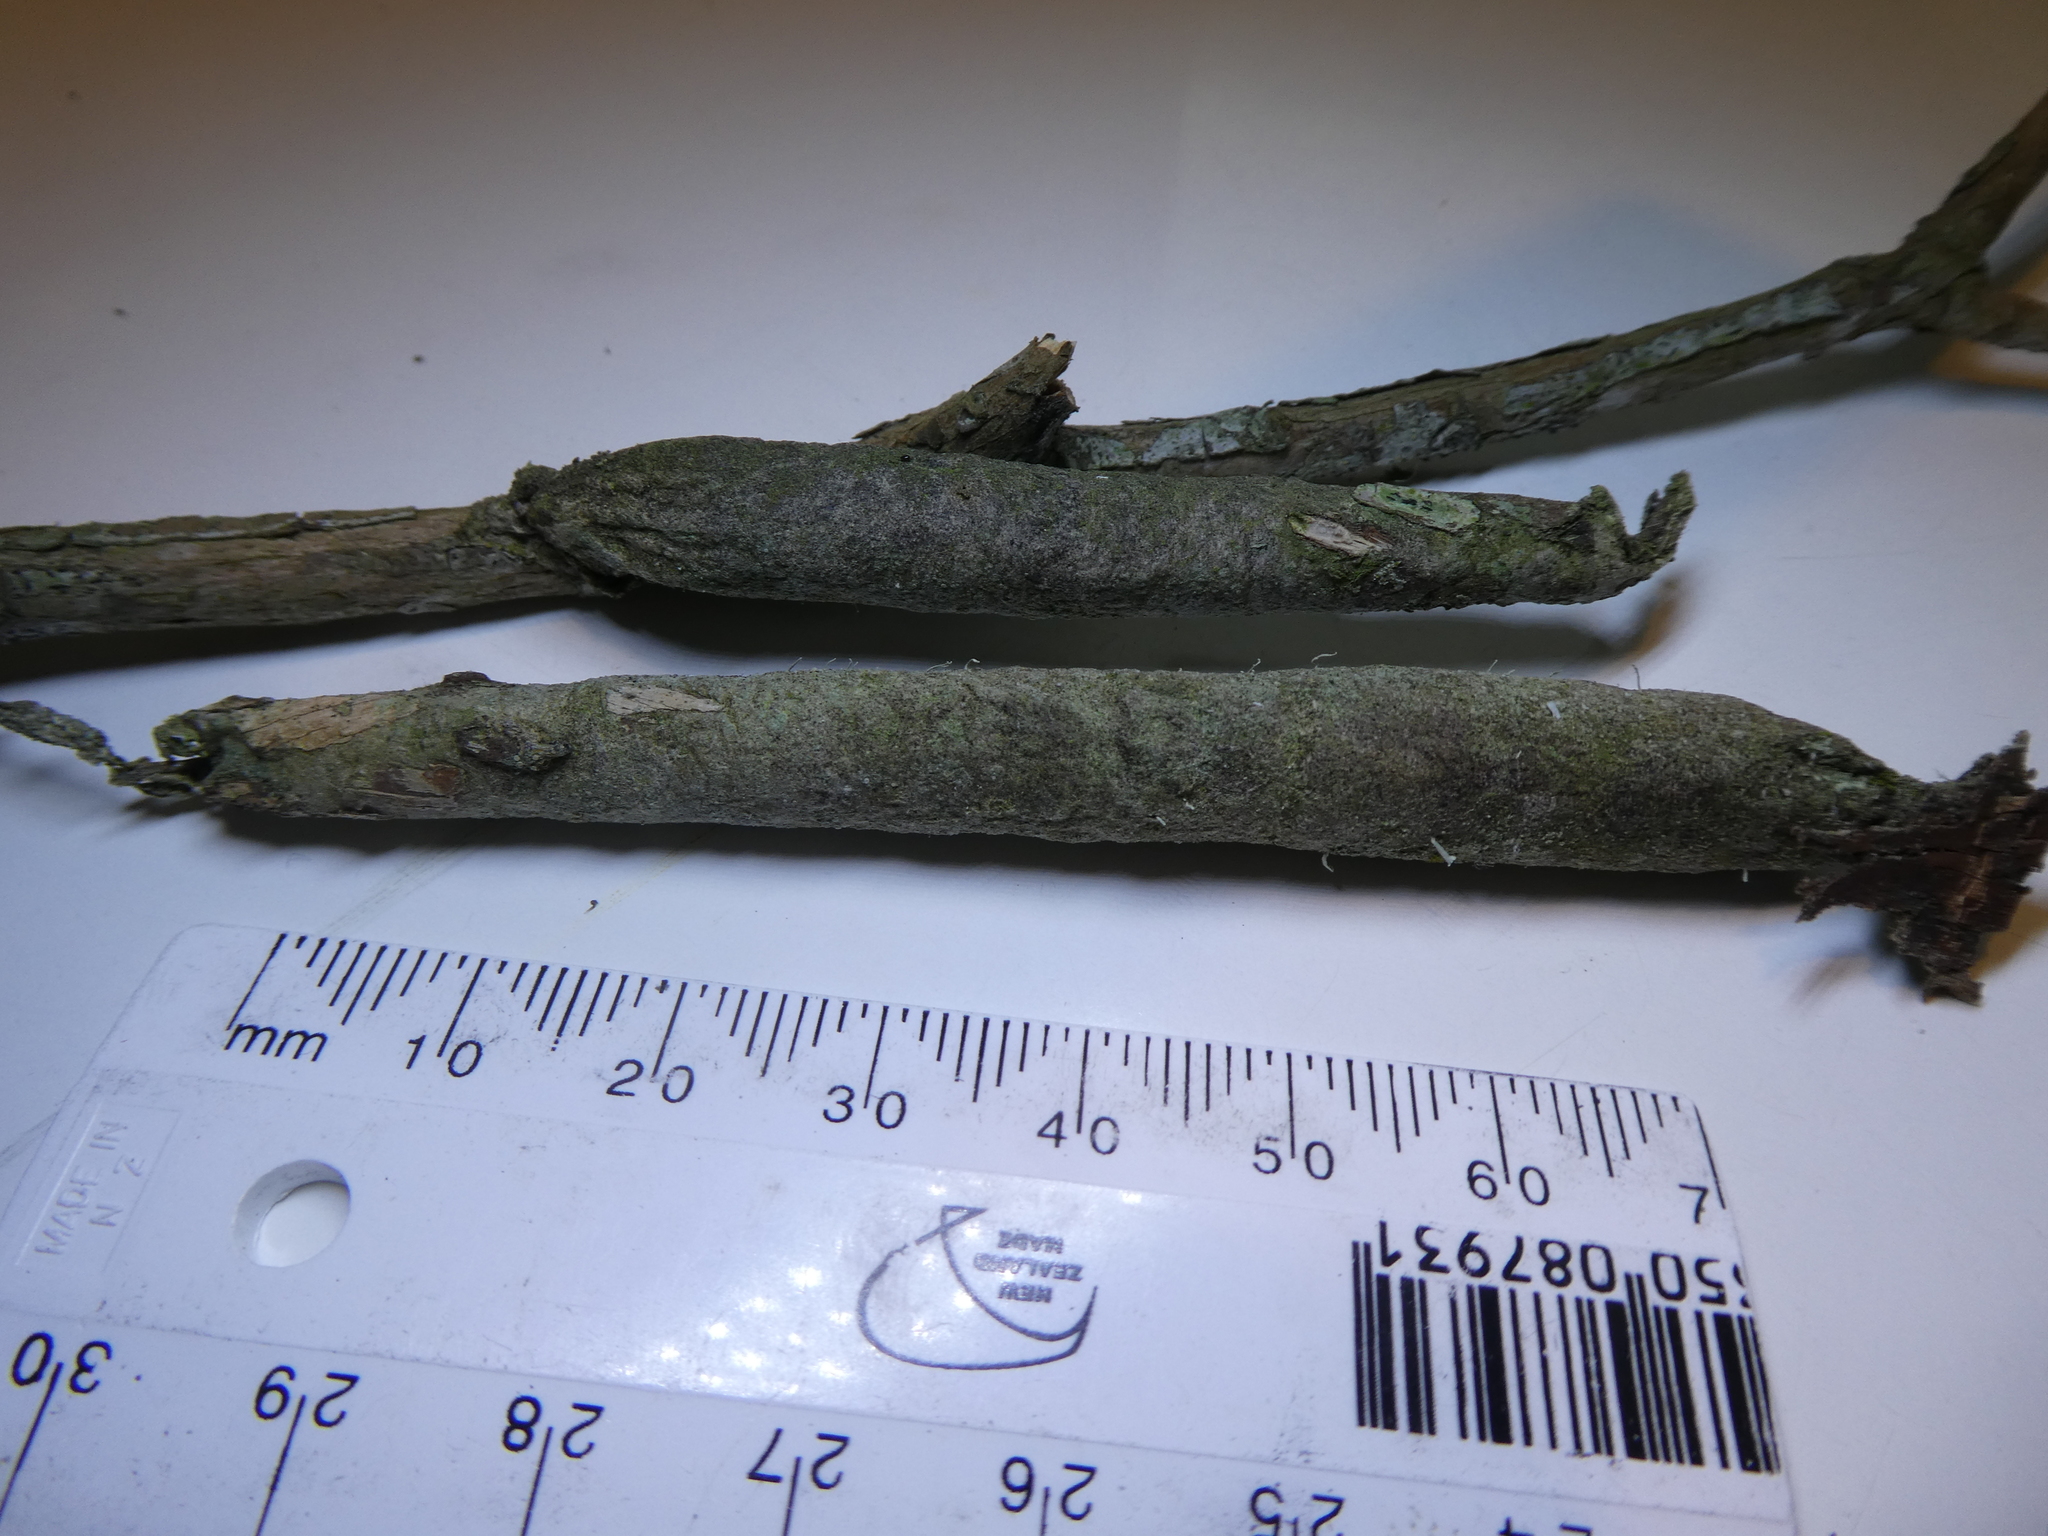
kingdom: Animalia
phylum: Arthropoda
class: Insecta
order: Lepidoptera
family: Psychidae
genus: Liothula
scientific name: Liothula omnivora
